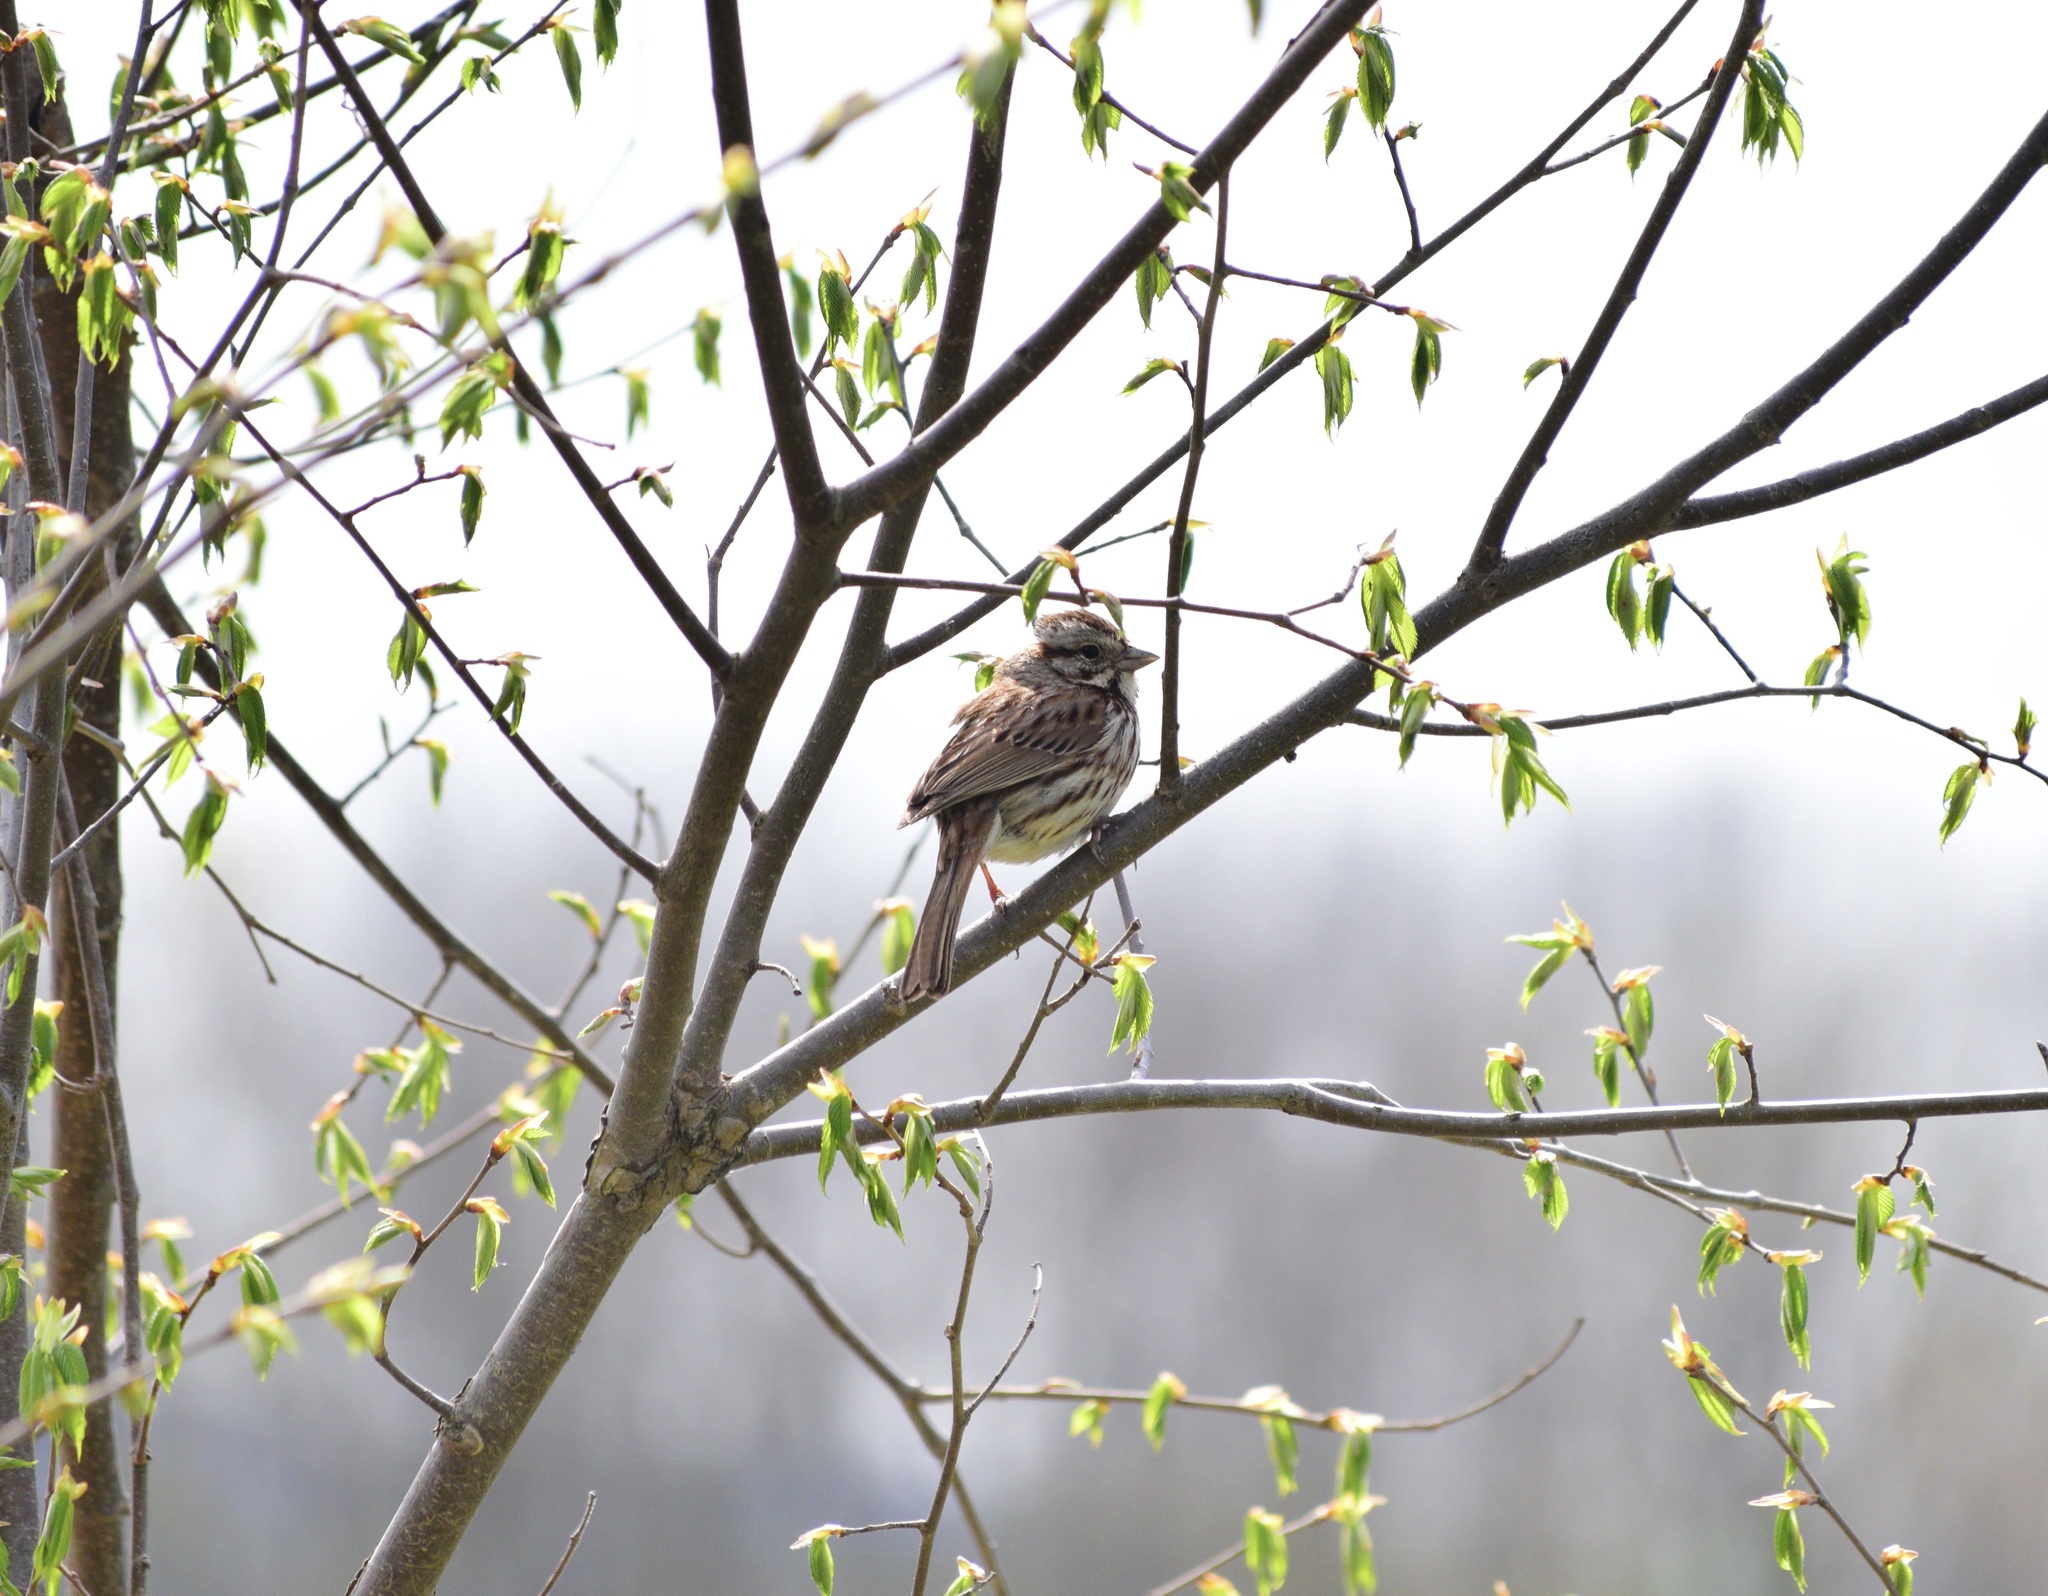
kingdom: Animalia
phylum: Chordata
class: Aves
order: Passeriformes
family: Passerellidae
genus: Melospiza
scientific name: Melospiza melodia
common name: Song sparrow
